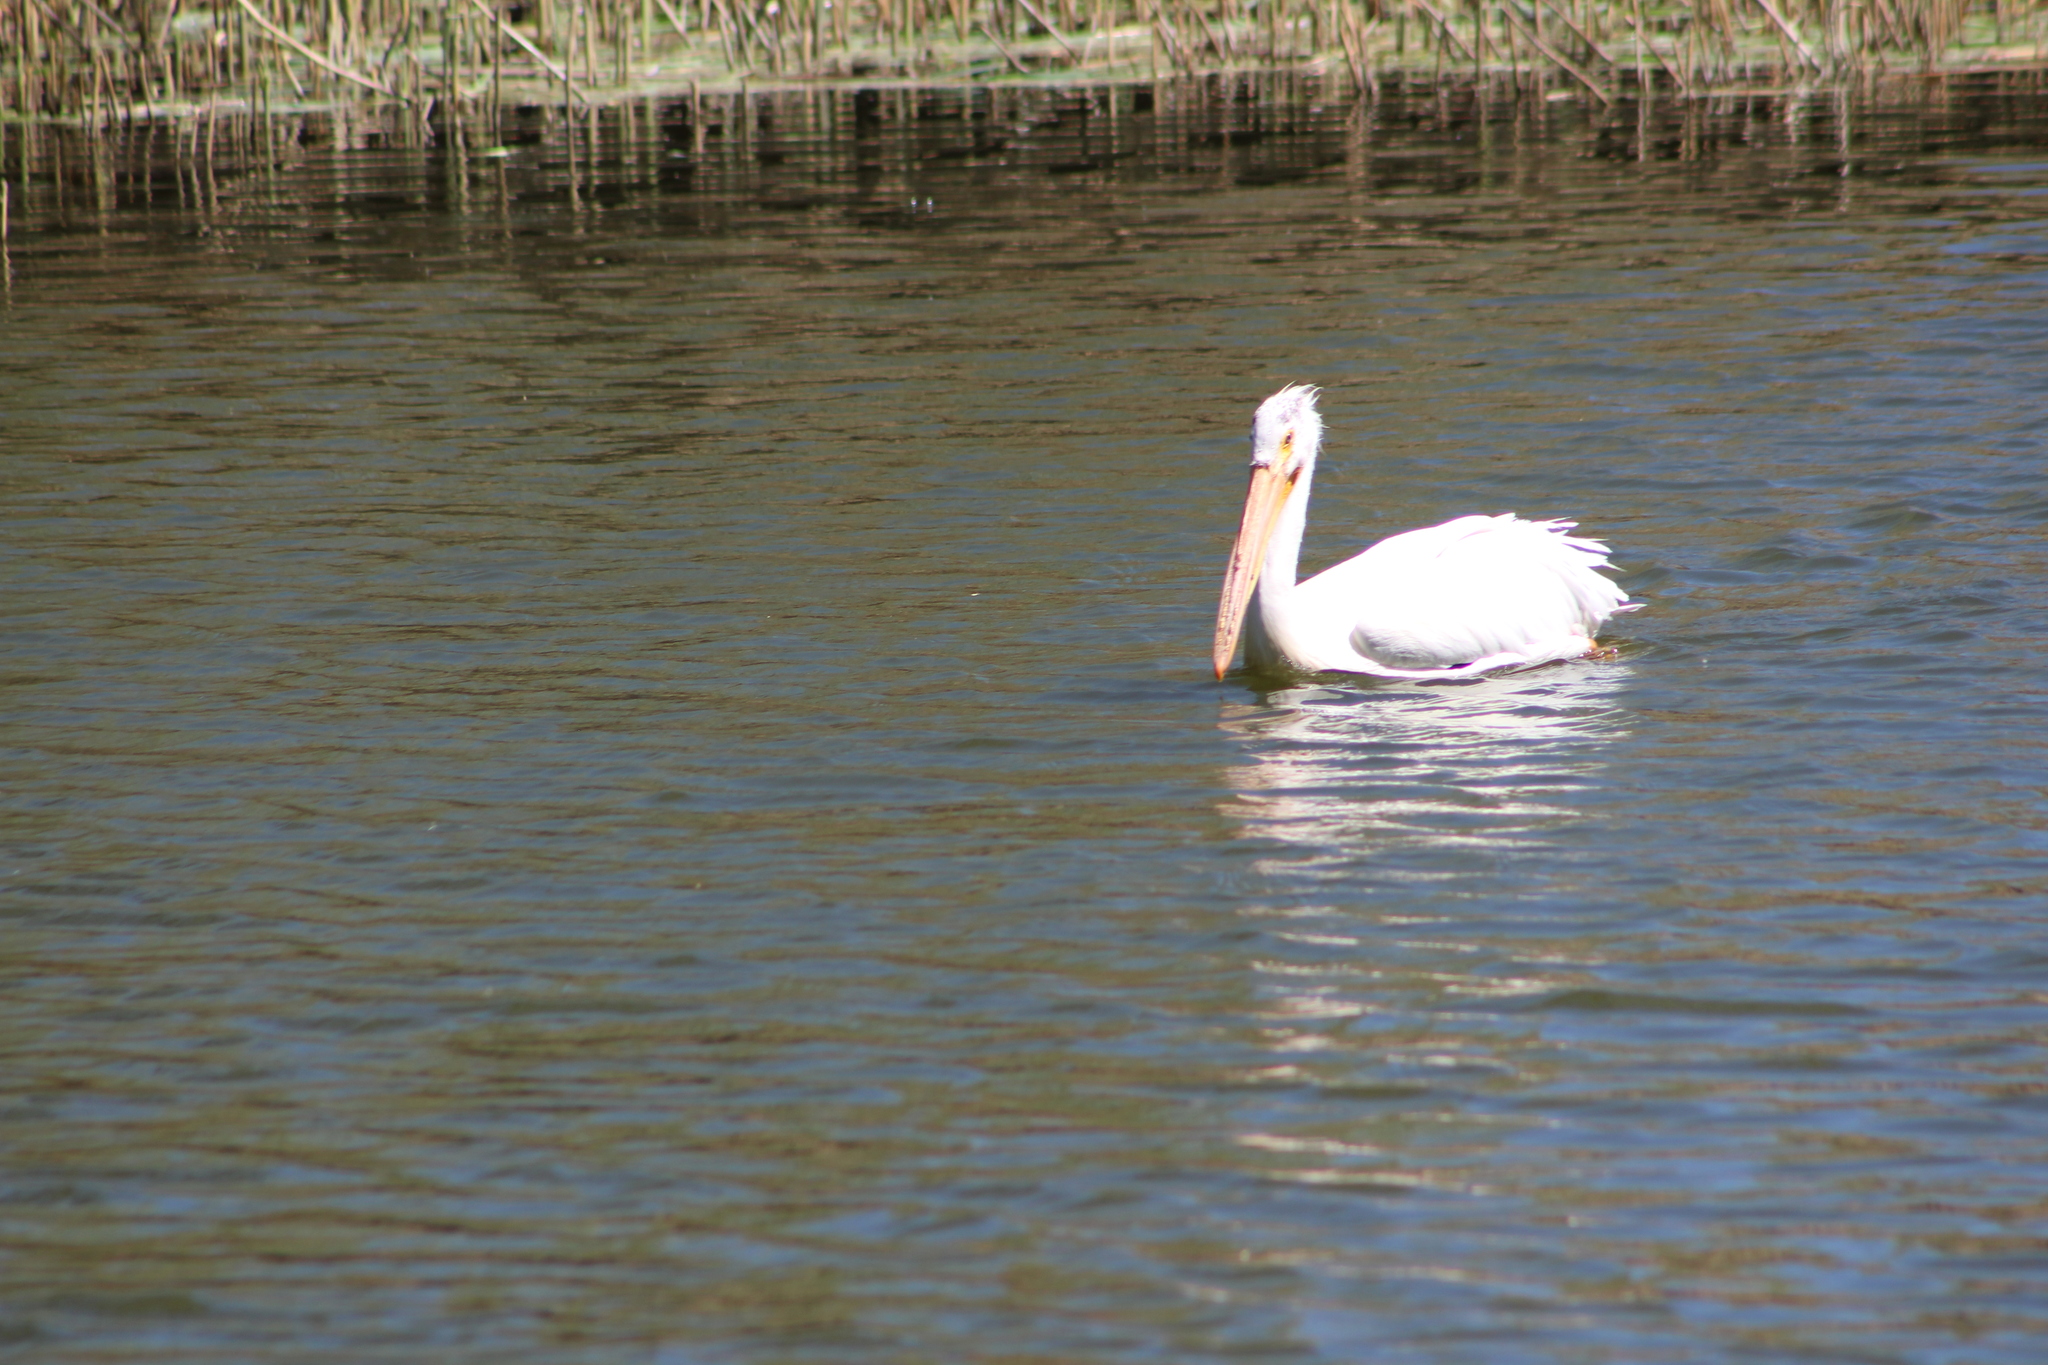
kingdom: Animalia
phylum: Chordata
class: Aves
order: Pelecaniformes
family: Pelecanidae
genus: Pelecanus
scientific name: Pelecanus erythrorhynchos
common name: American white pelican
